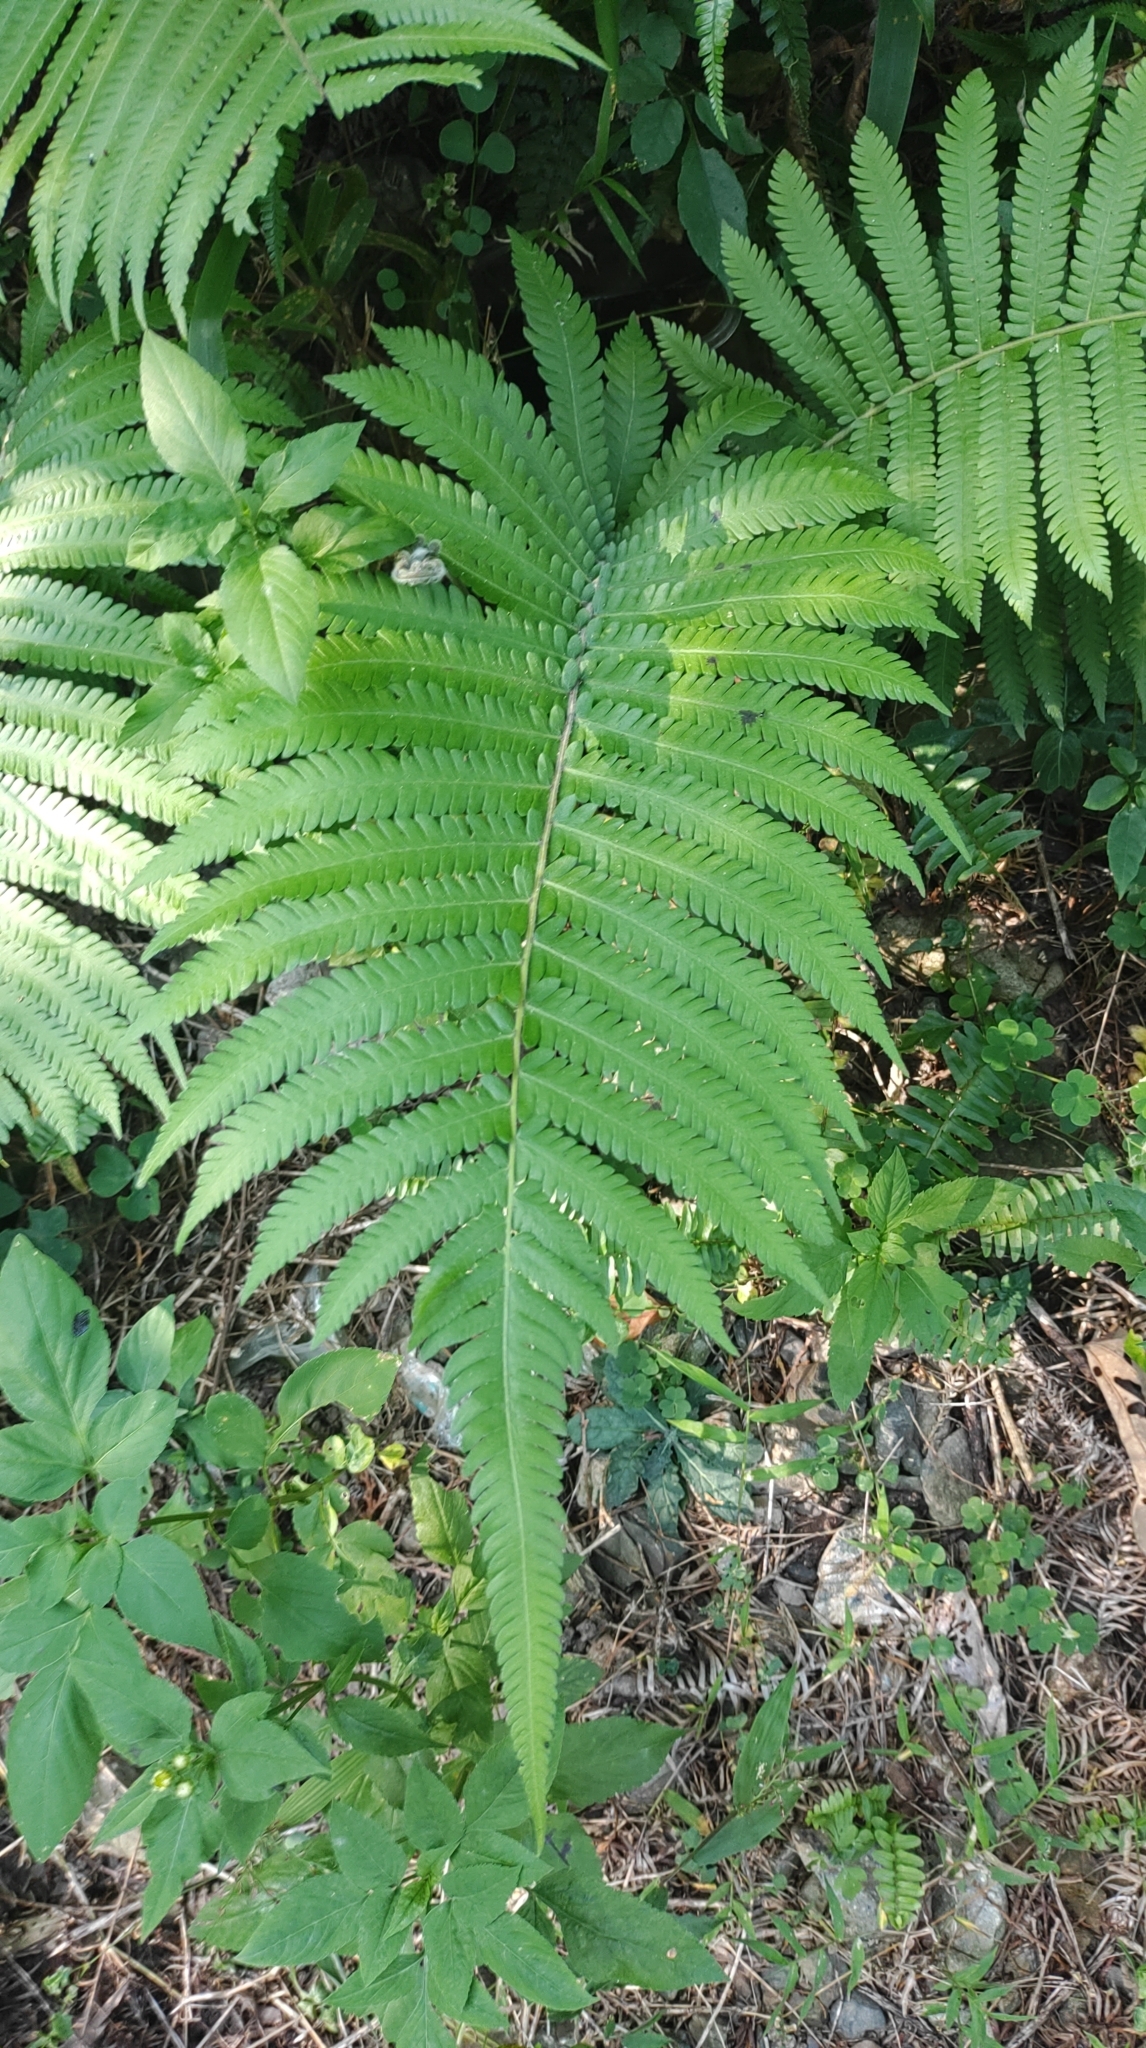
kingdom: Plantae
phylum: Tracheophyta
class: Polypodiopsida
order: Polypodiales
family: Thelypteridaceae
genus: Christella
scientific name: Christella parasitica
